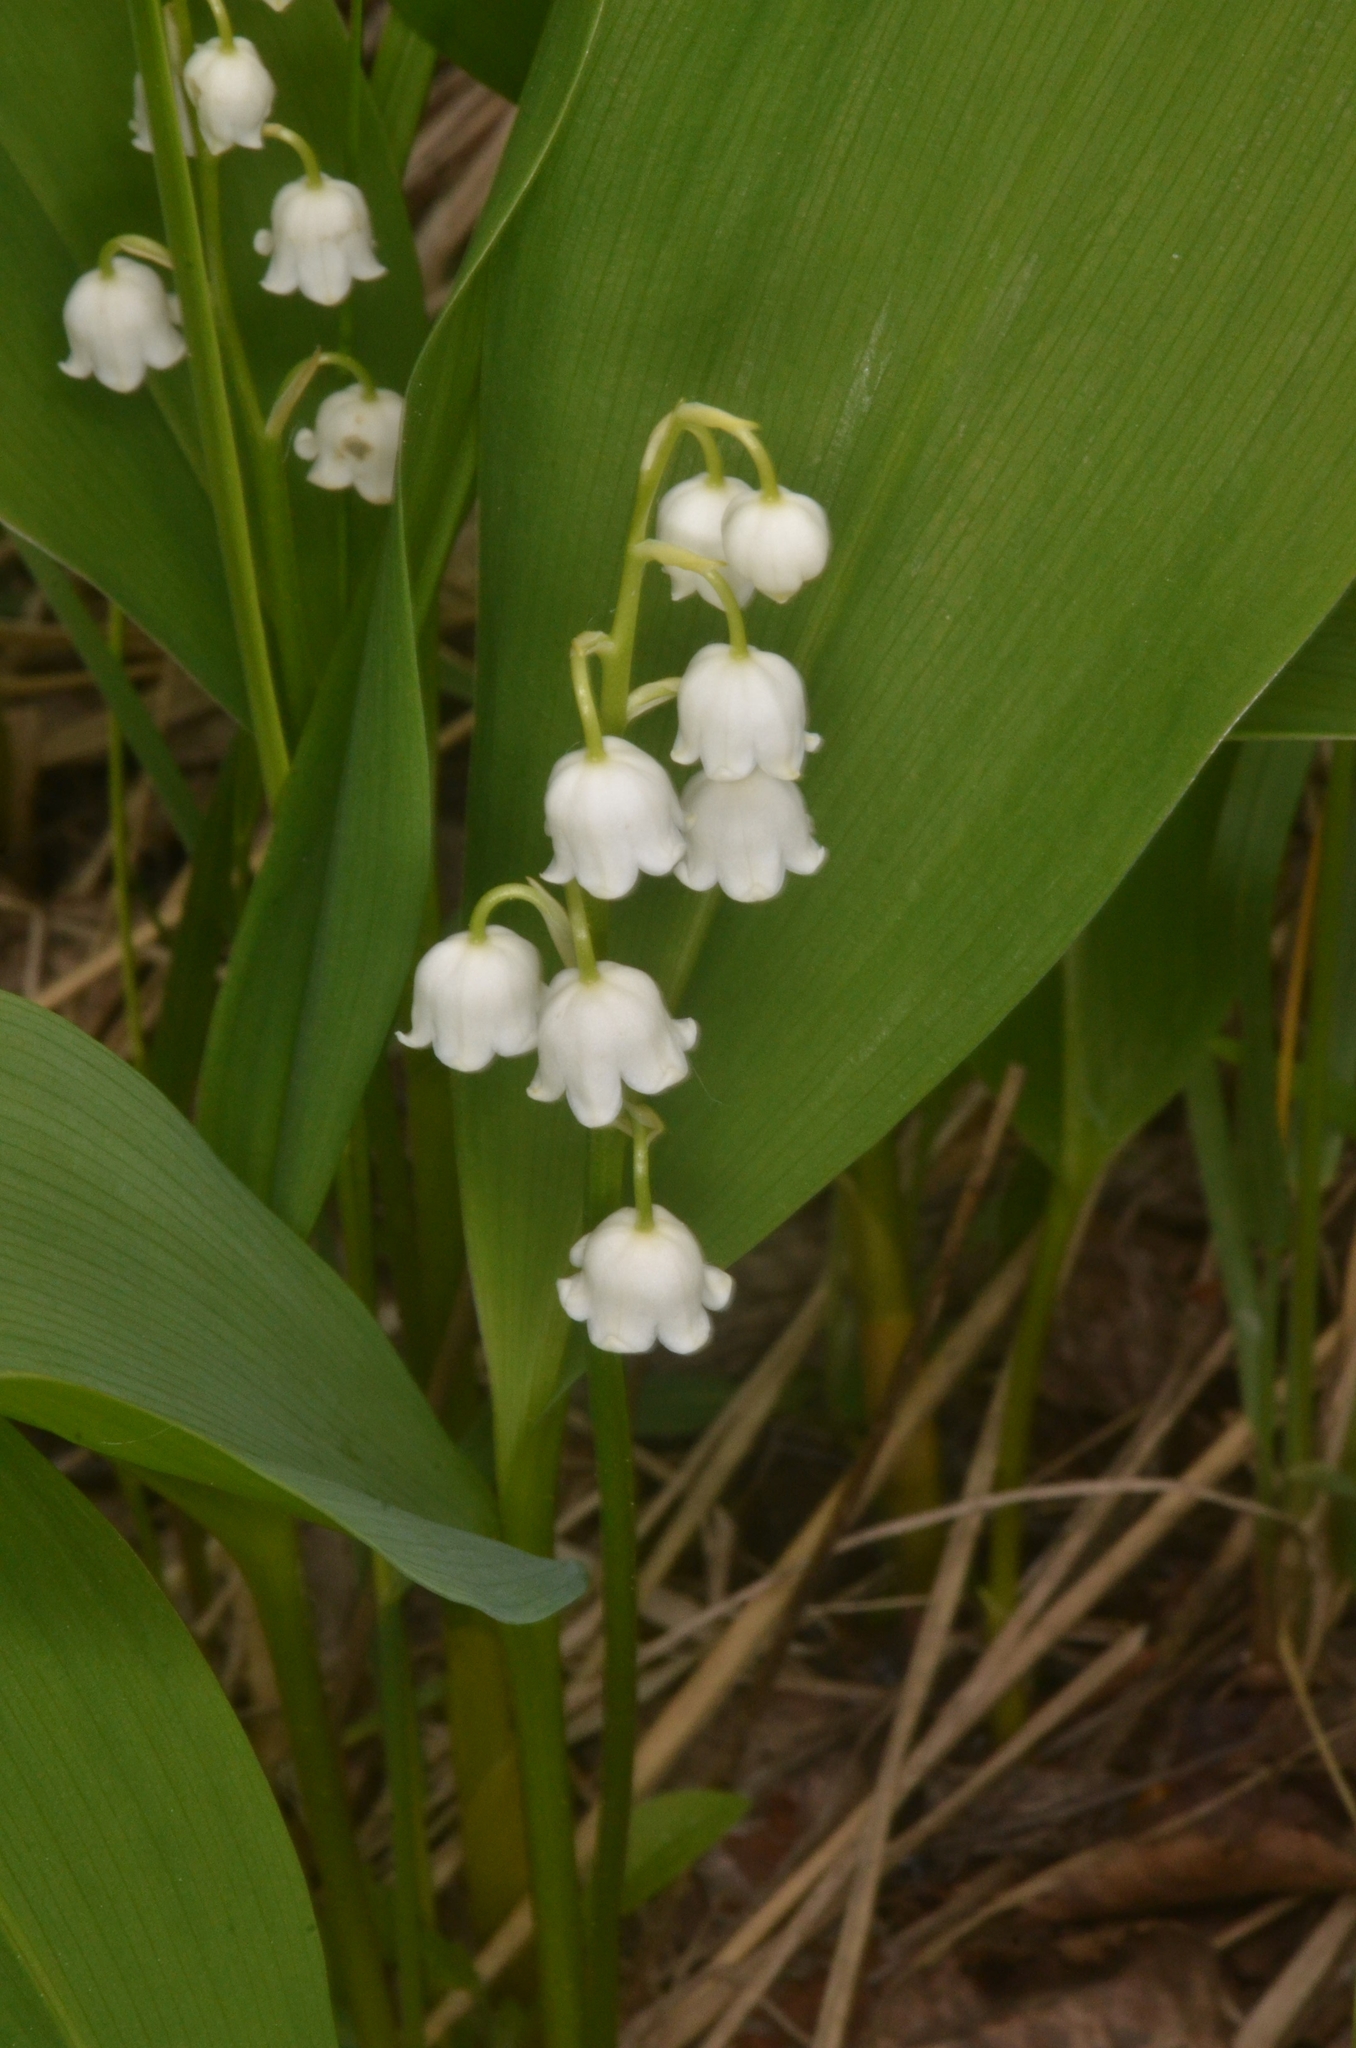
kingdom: Plantae
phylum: Tracheophyta
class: Liliopsida
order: Asparagales
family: Asparagaceae
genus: Convallaria
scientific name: Convallaria majalis
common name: Lily-of-the-valley
